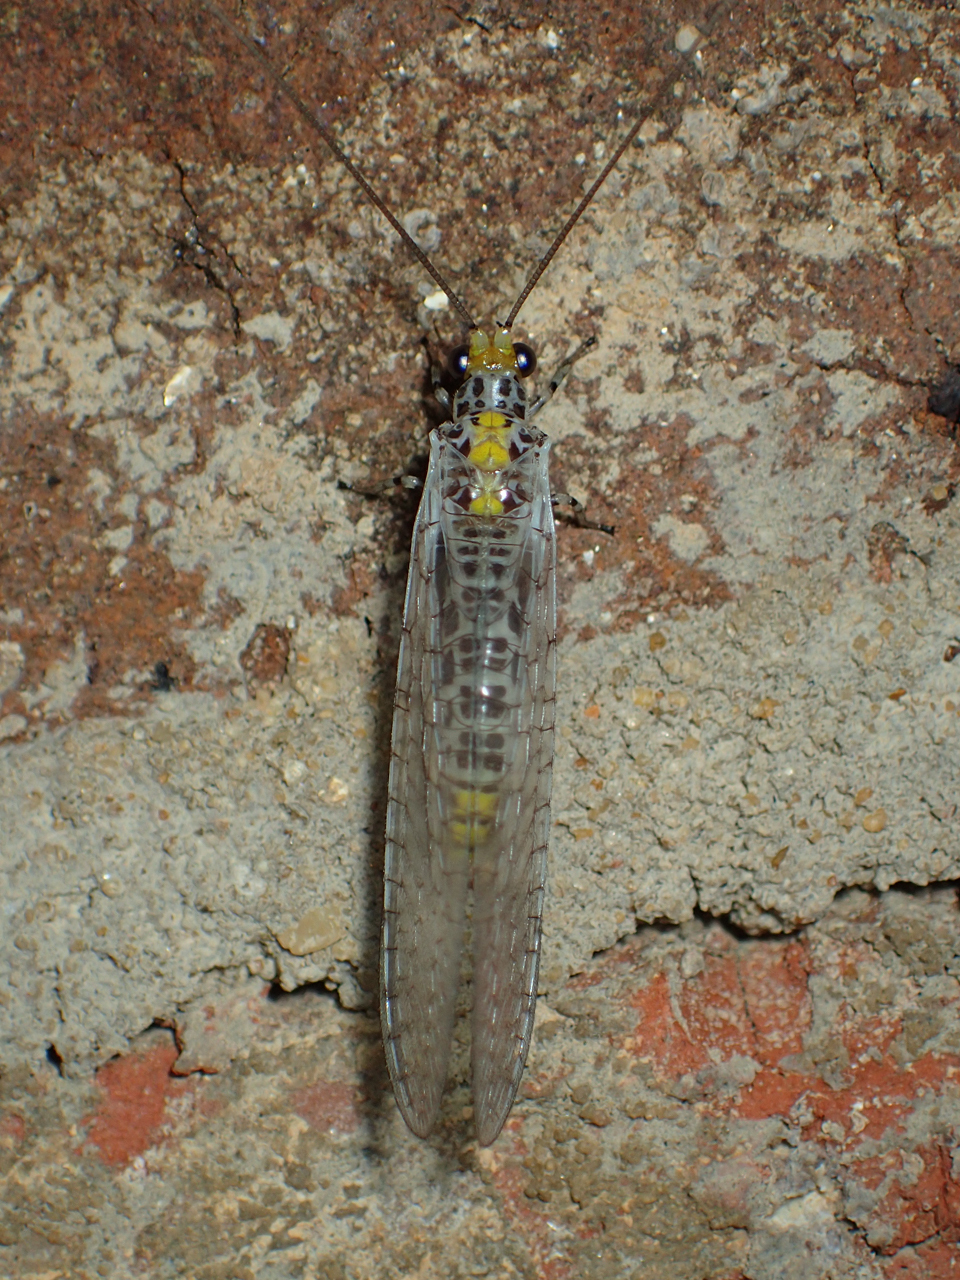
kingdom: Animalia
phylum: Arthropoda
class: Insecta
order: Neuroptera
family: Chrysopidae
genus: Abachrysa
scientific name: Abachrysa eureka
